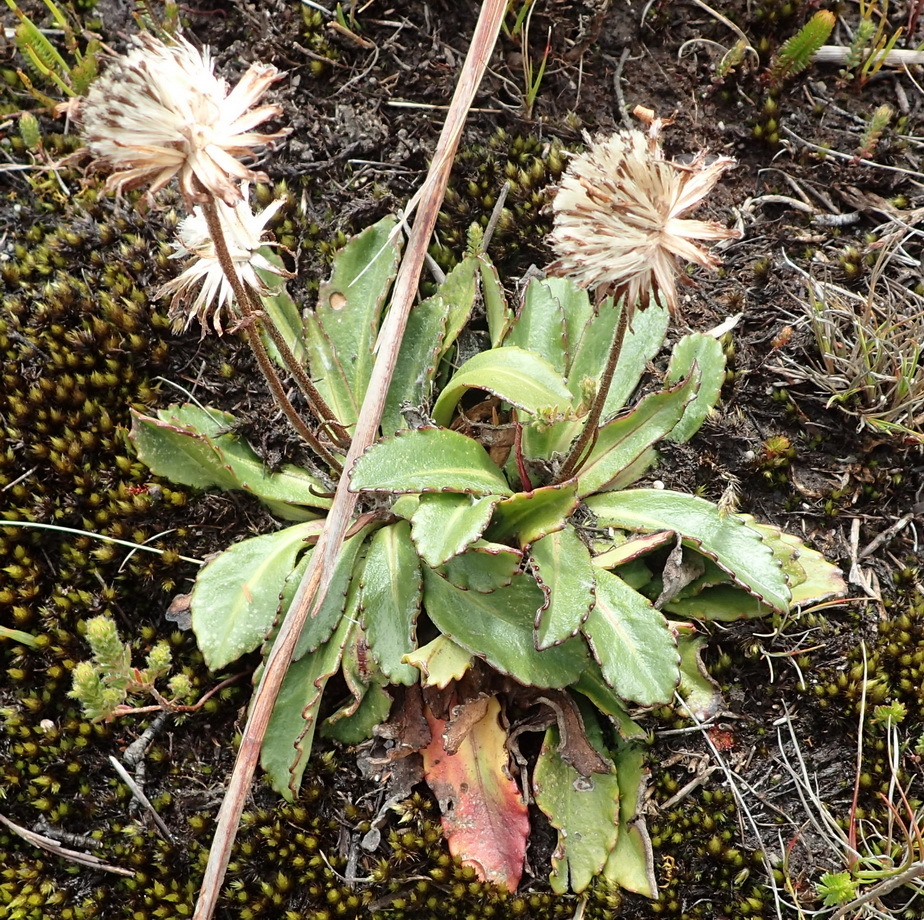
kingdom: Plantae
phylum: Tracheophyta
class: Magnoliopsida
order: Asterales
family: Asteraceae
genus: Zyrphelis
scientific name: Zyrphelis crenata
